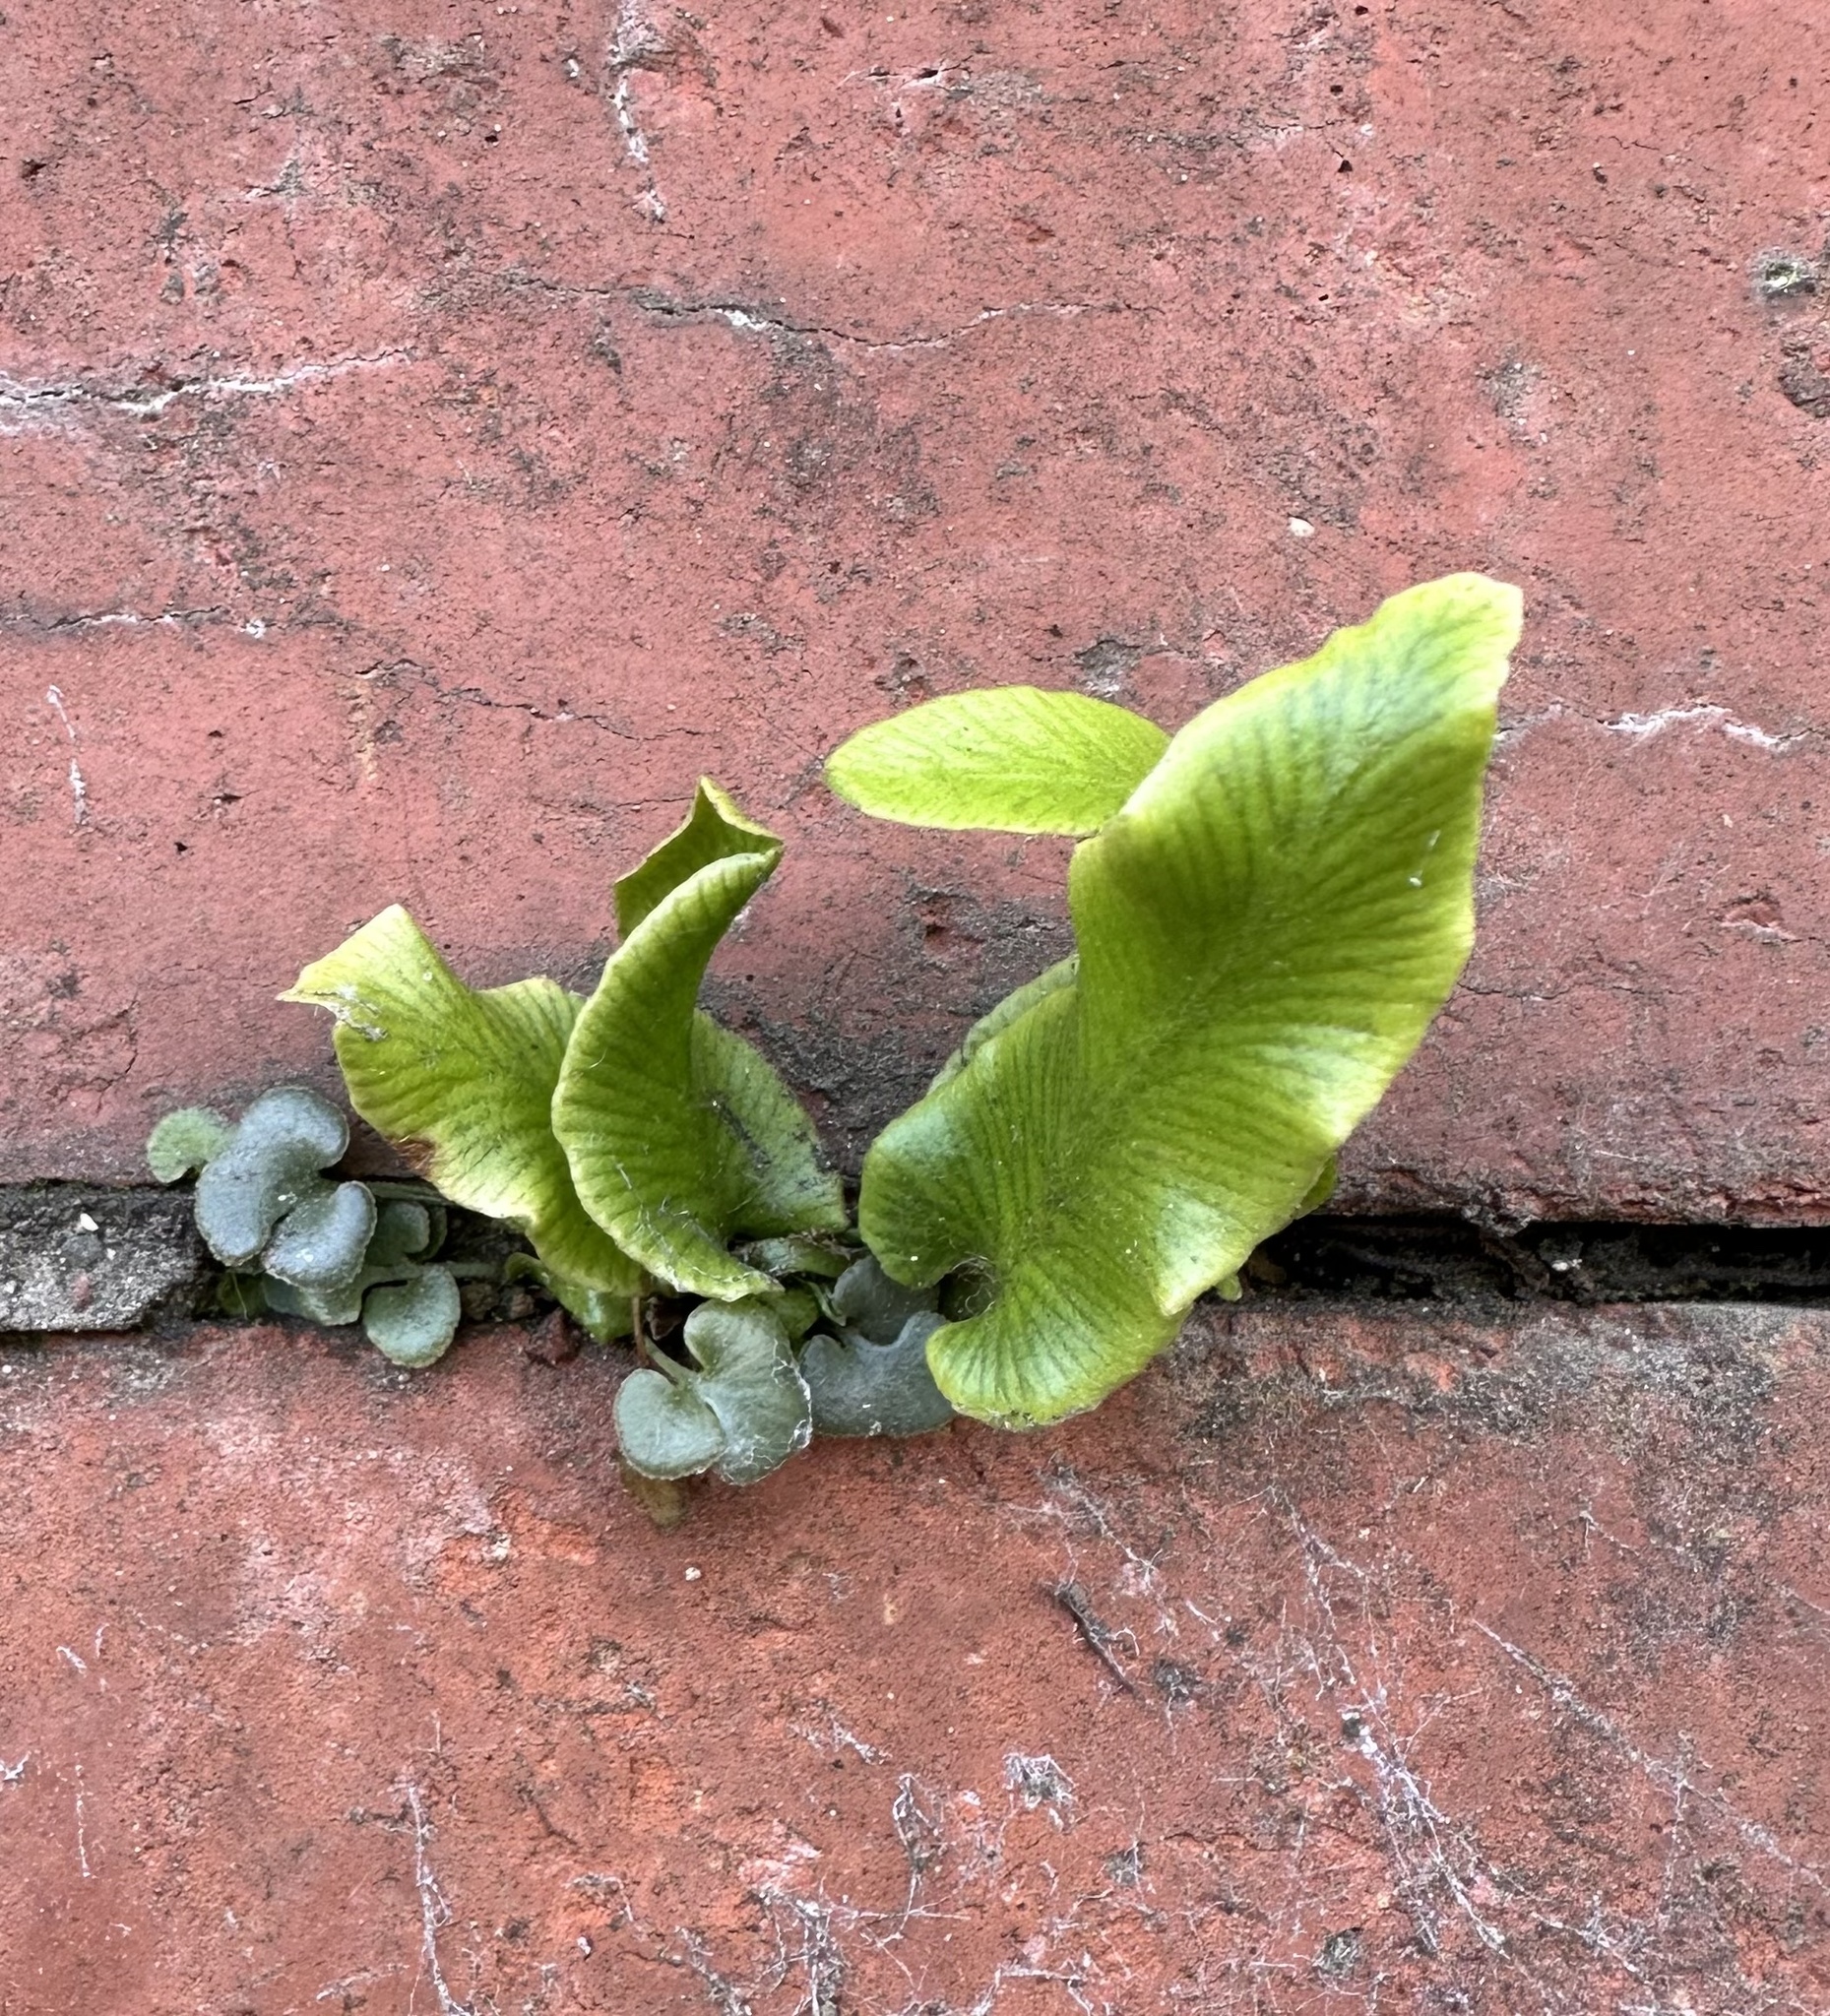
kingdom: Plantae
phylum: Tracheophyta
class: Polypodiopsida
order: Polypodiales
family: Aspleniaceae
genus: Asplenium
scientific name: Asplenium scolopendrium
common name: Hart's-tongue fern
